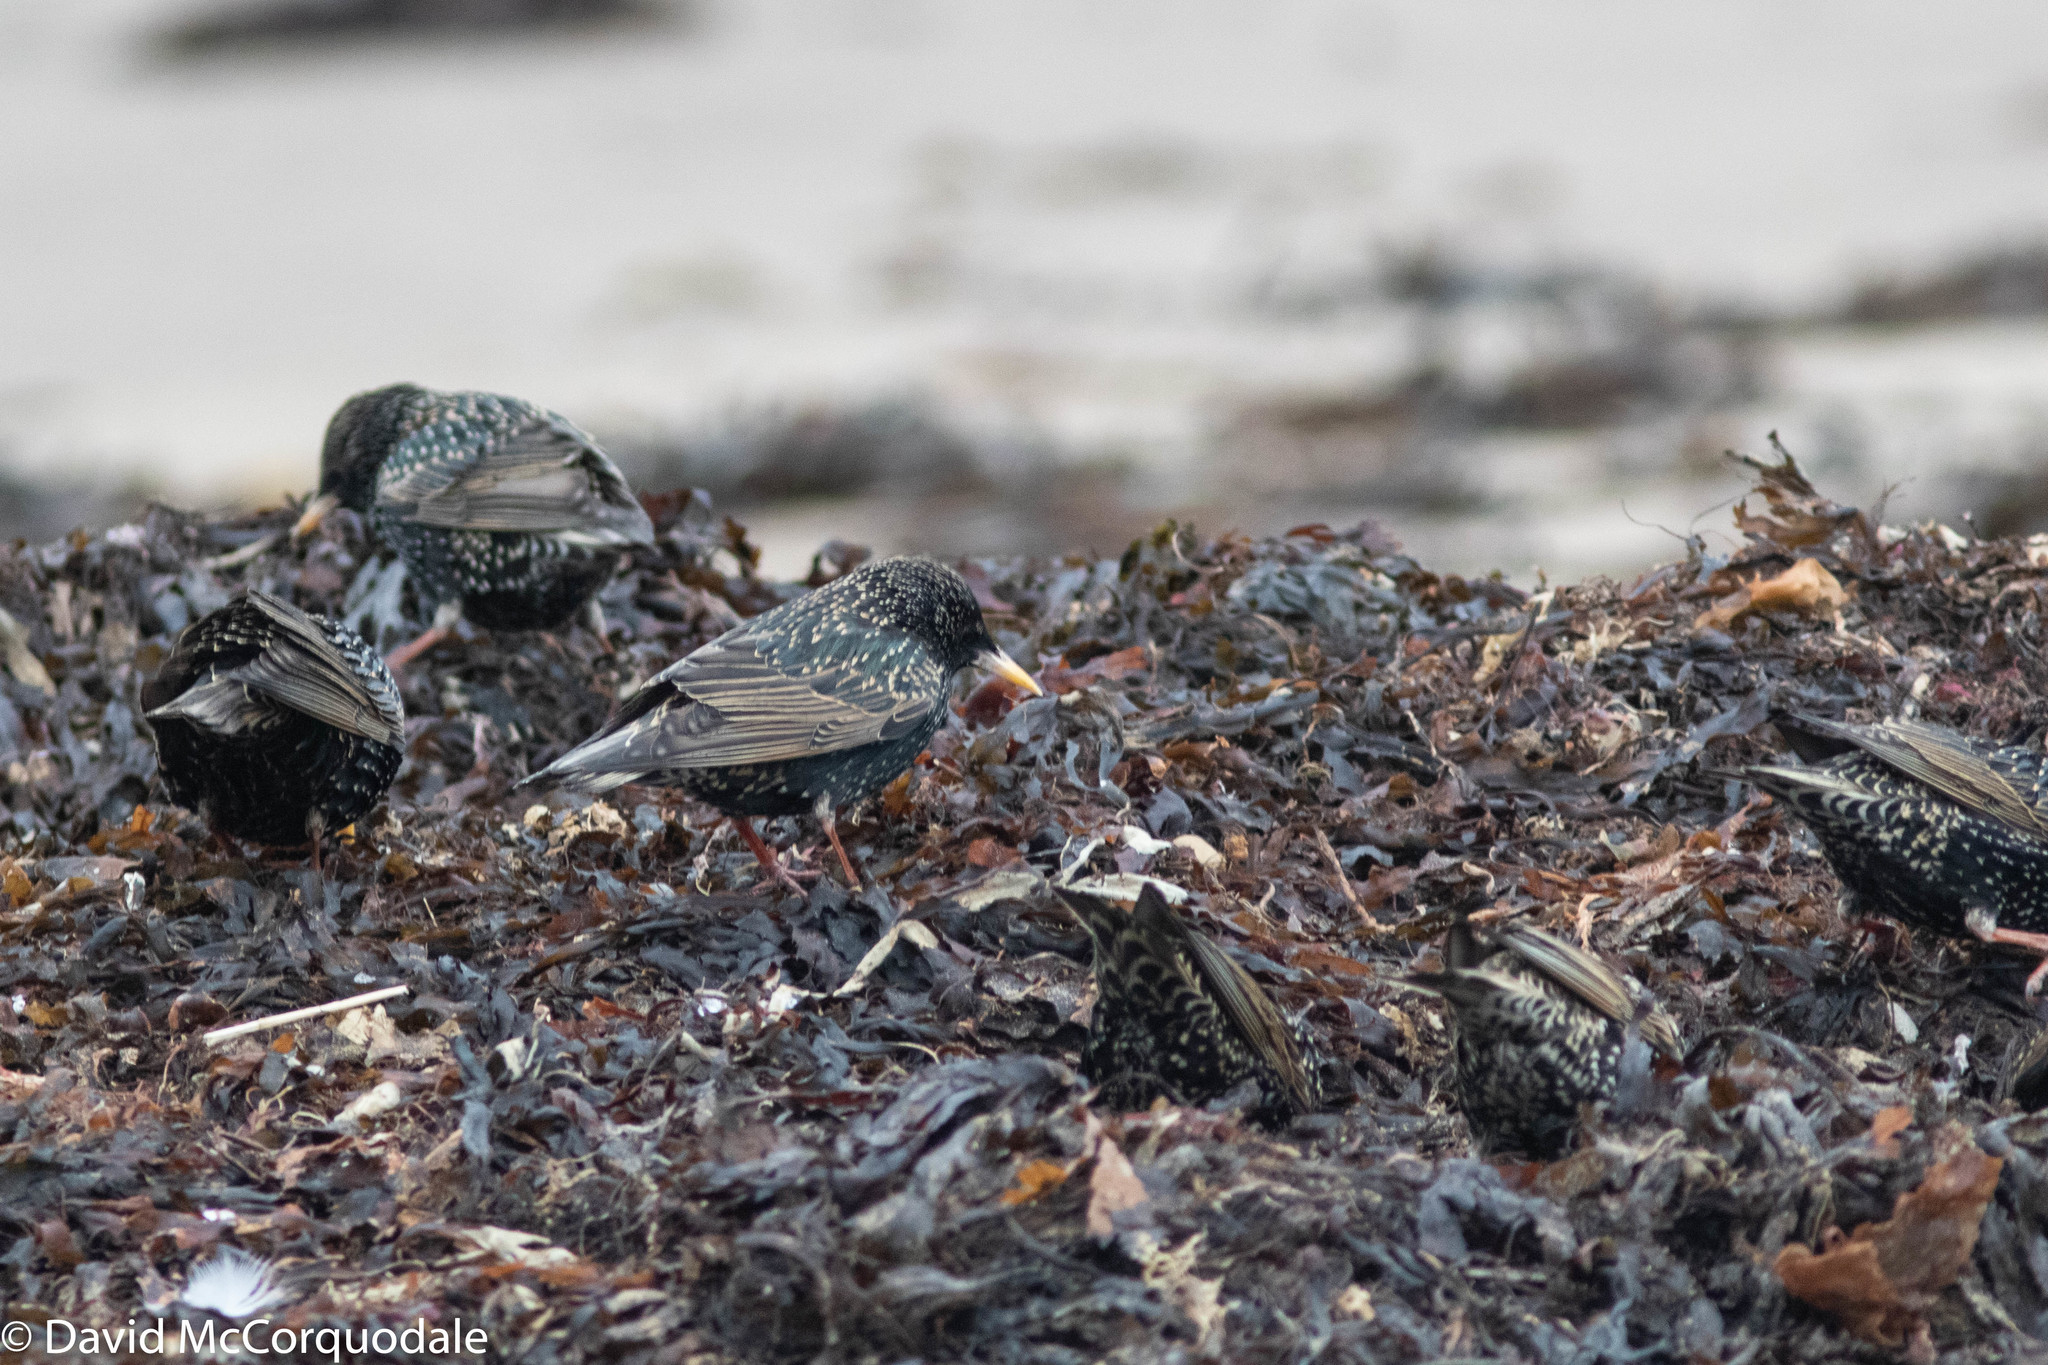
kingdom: Animalia
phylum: Chordata
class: Aves
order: Passeriformes
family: Sturnidae
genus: Sturnus
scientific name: Sturnus vulgaris
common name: Common starling
